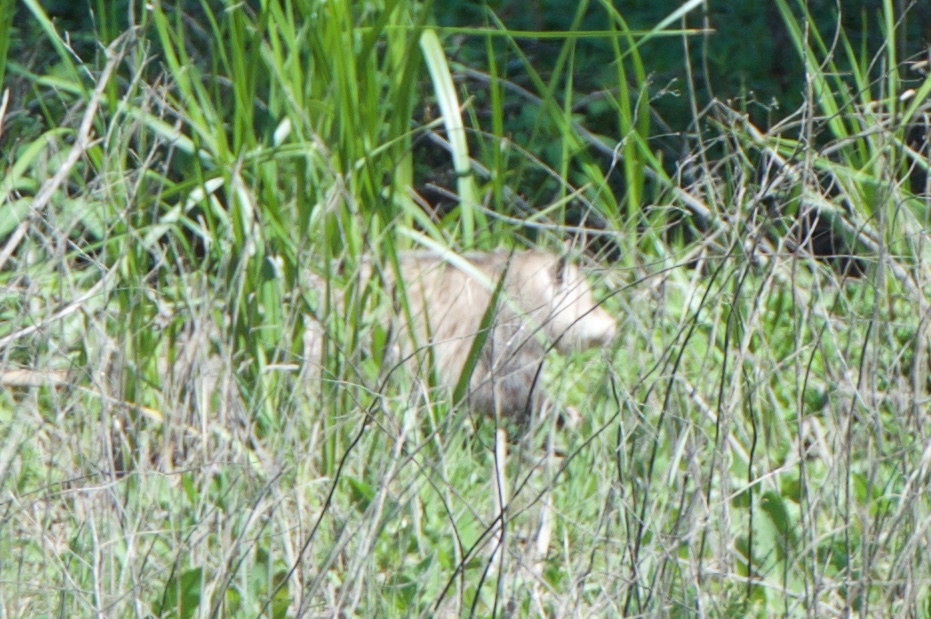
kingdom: Animalia
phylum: Chordata
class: Mammalia
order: Didelphimorphia
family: Didelphidae
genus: Didelphis
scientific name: Didelphis virginiana
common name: Virginia opossum
